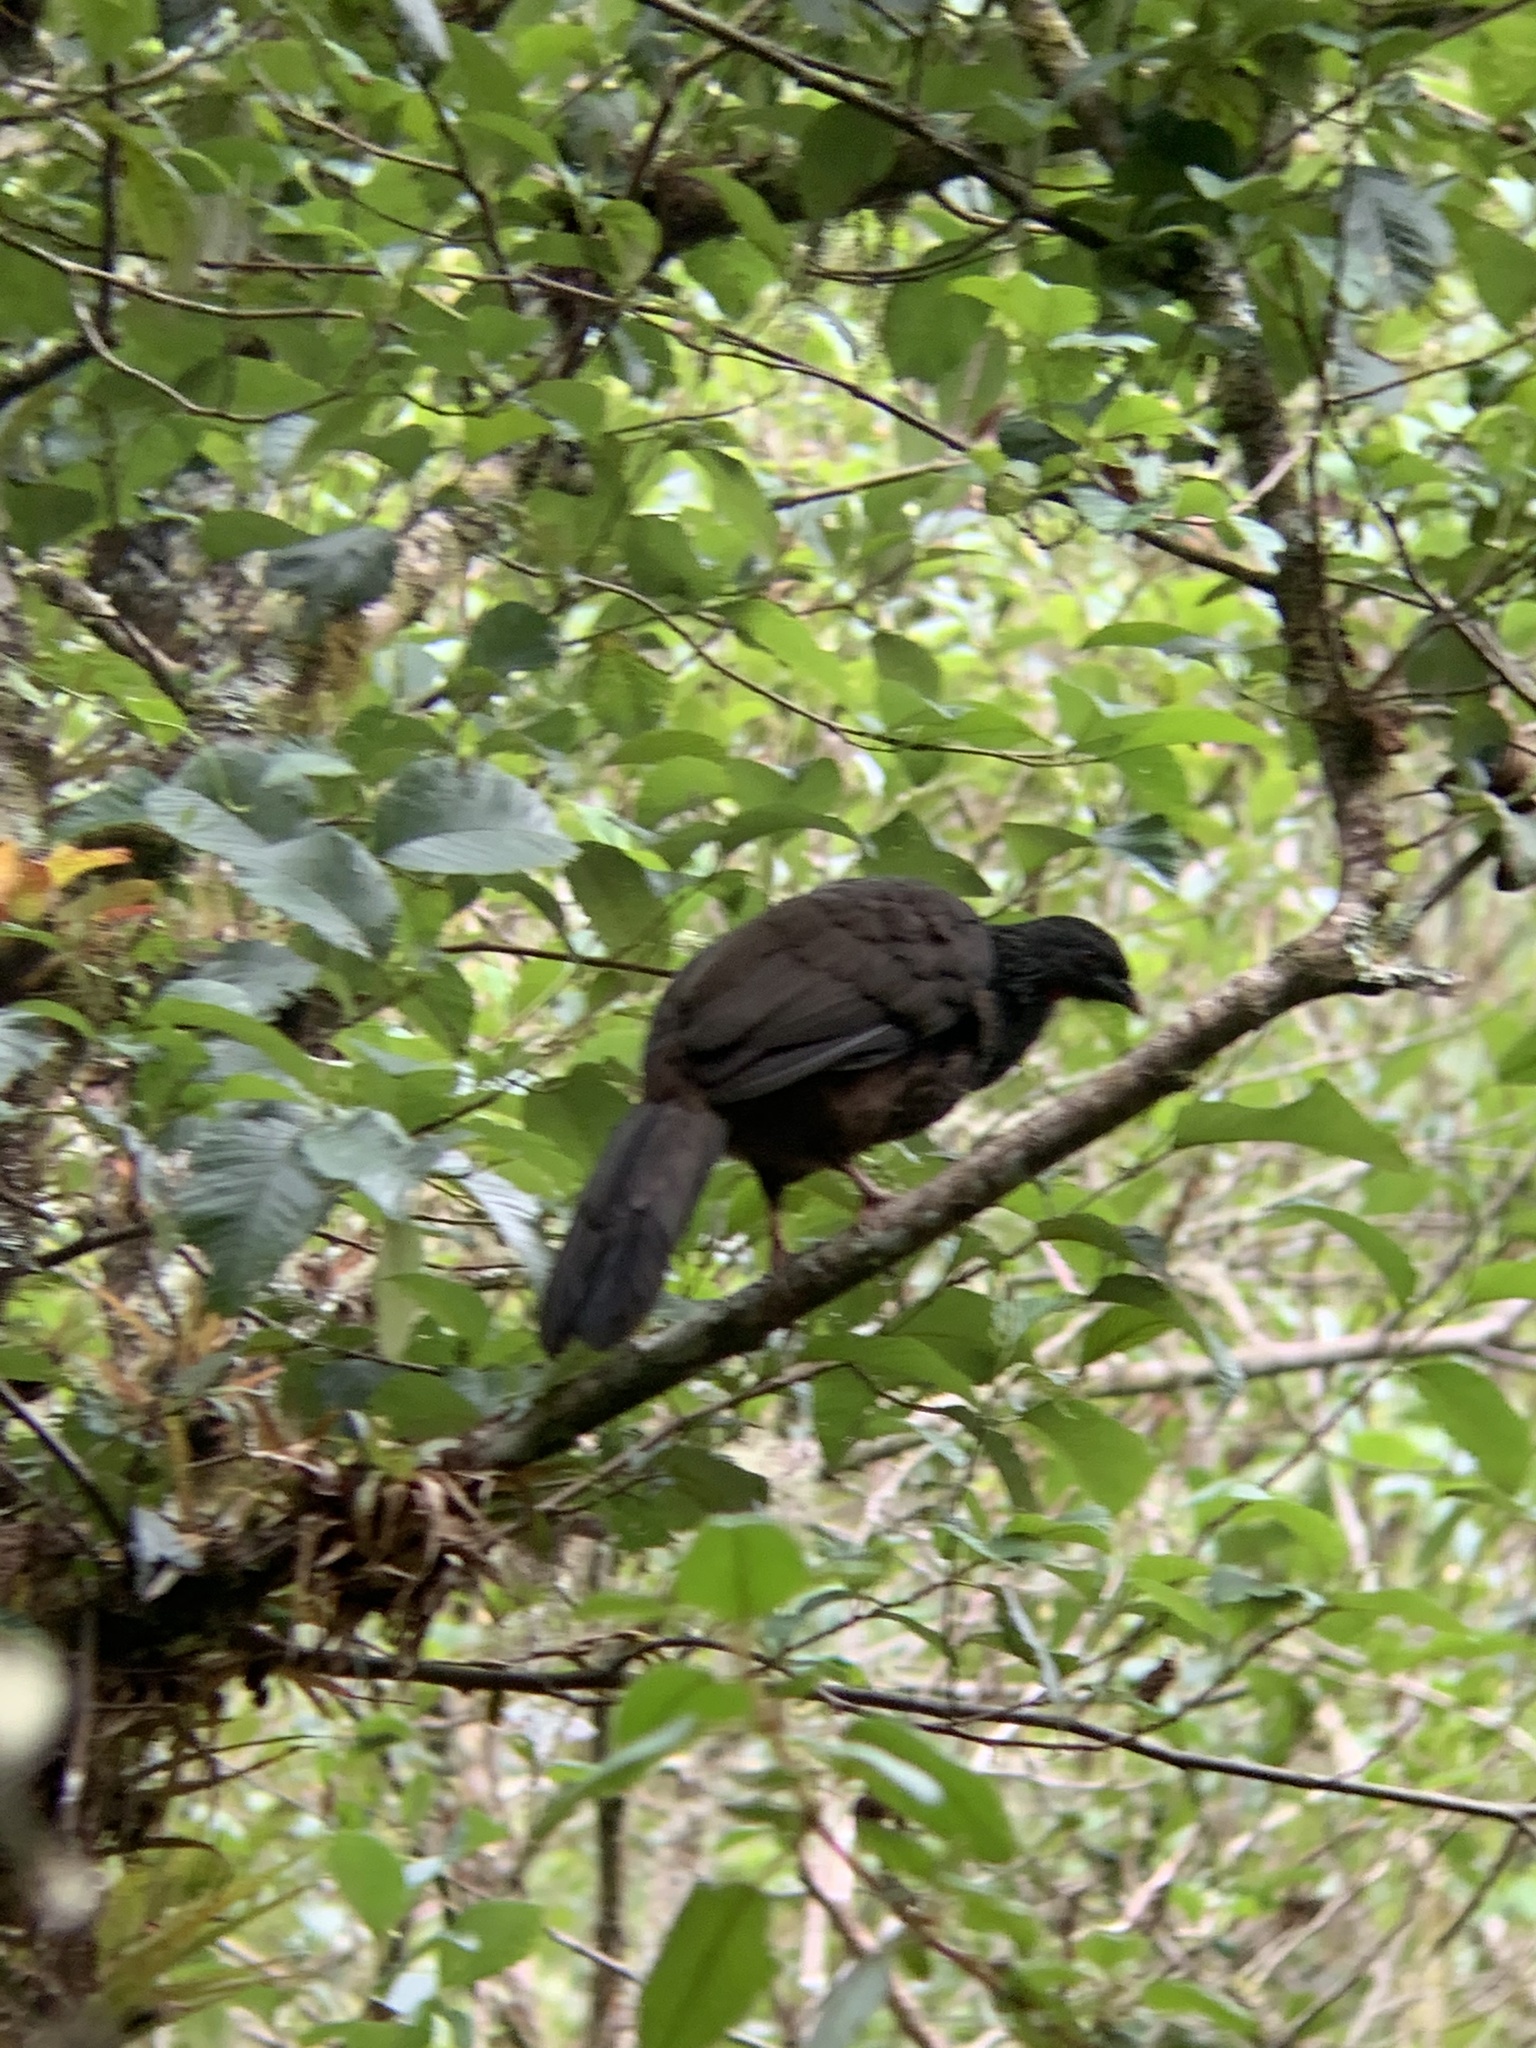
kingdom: Animalia
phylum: Chordata
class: Aves
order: Galliformes
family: Cracidae
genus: Penelope
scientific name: Penelope montagnii
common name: Andean guan
